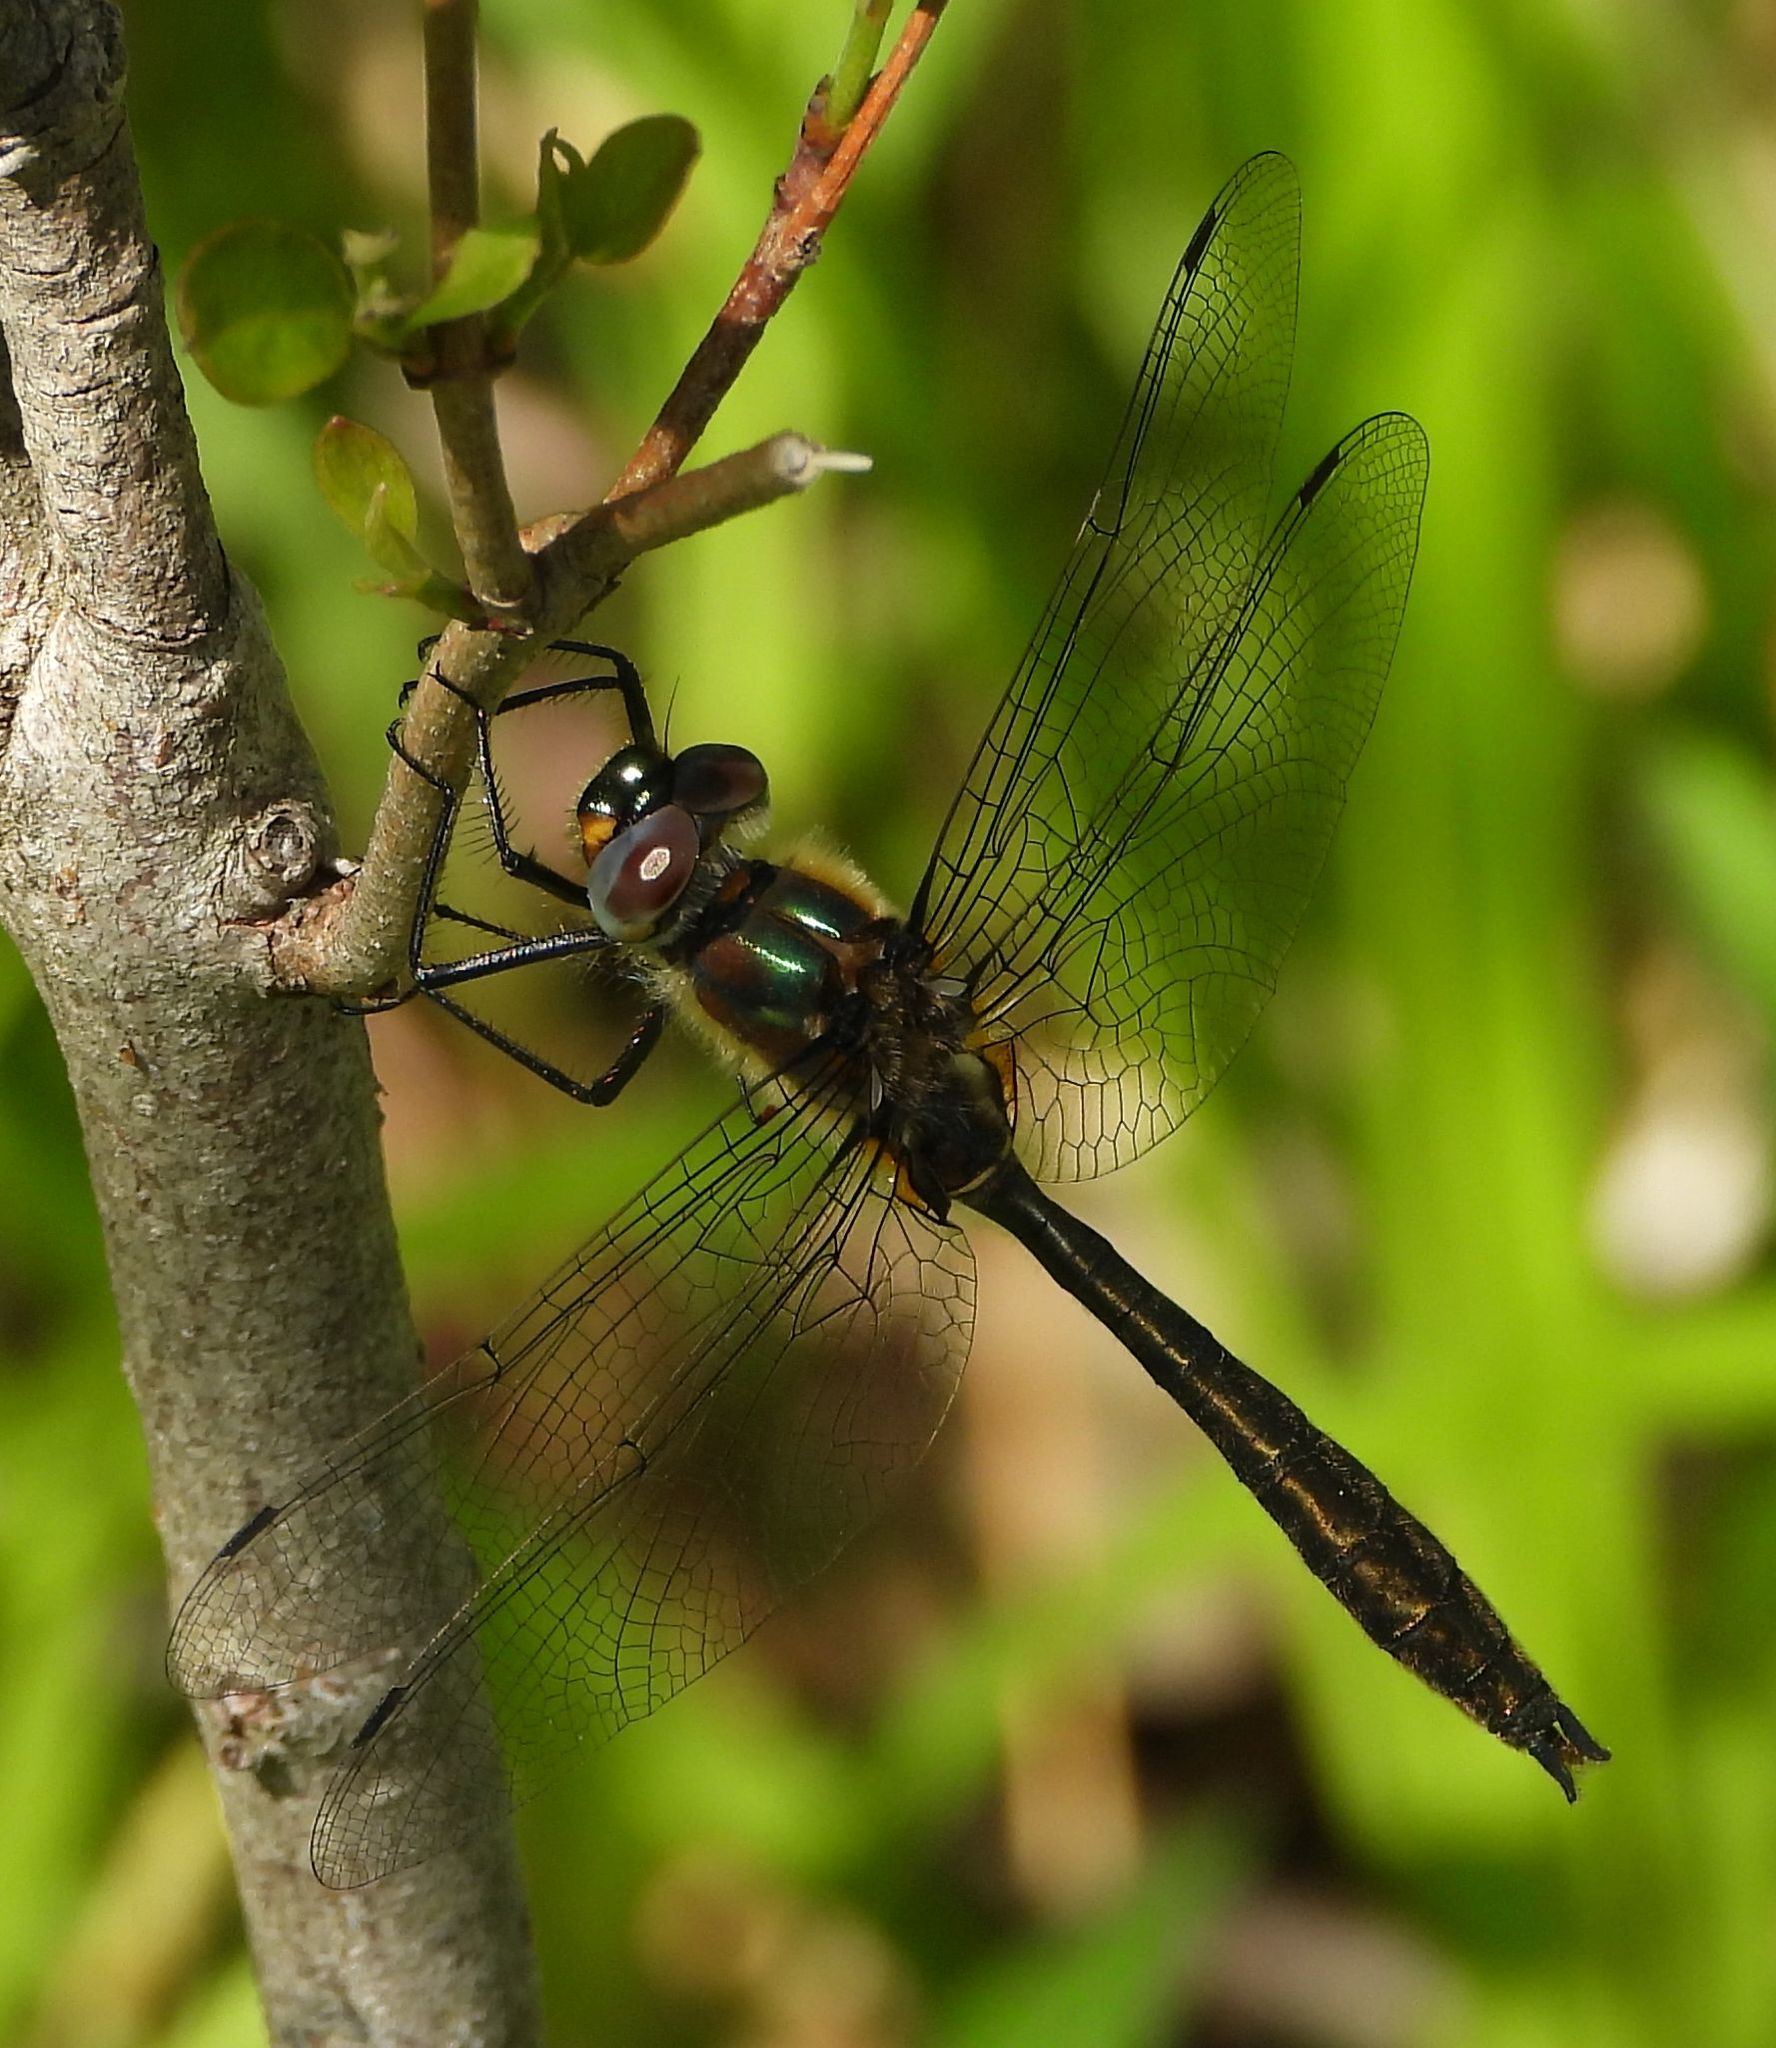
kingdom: Animalia
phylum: Arthropoda
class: Insecta
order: Odonata
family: Corduliidae
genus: Cordulia
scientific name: Cordulia shurtleffii
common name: American emerald
